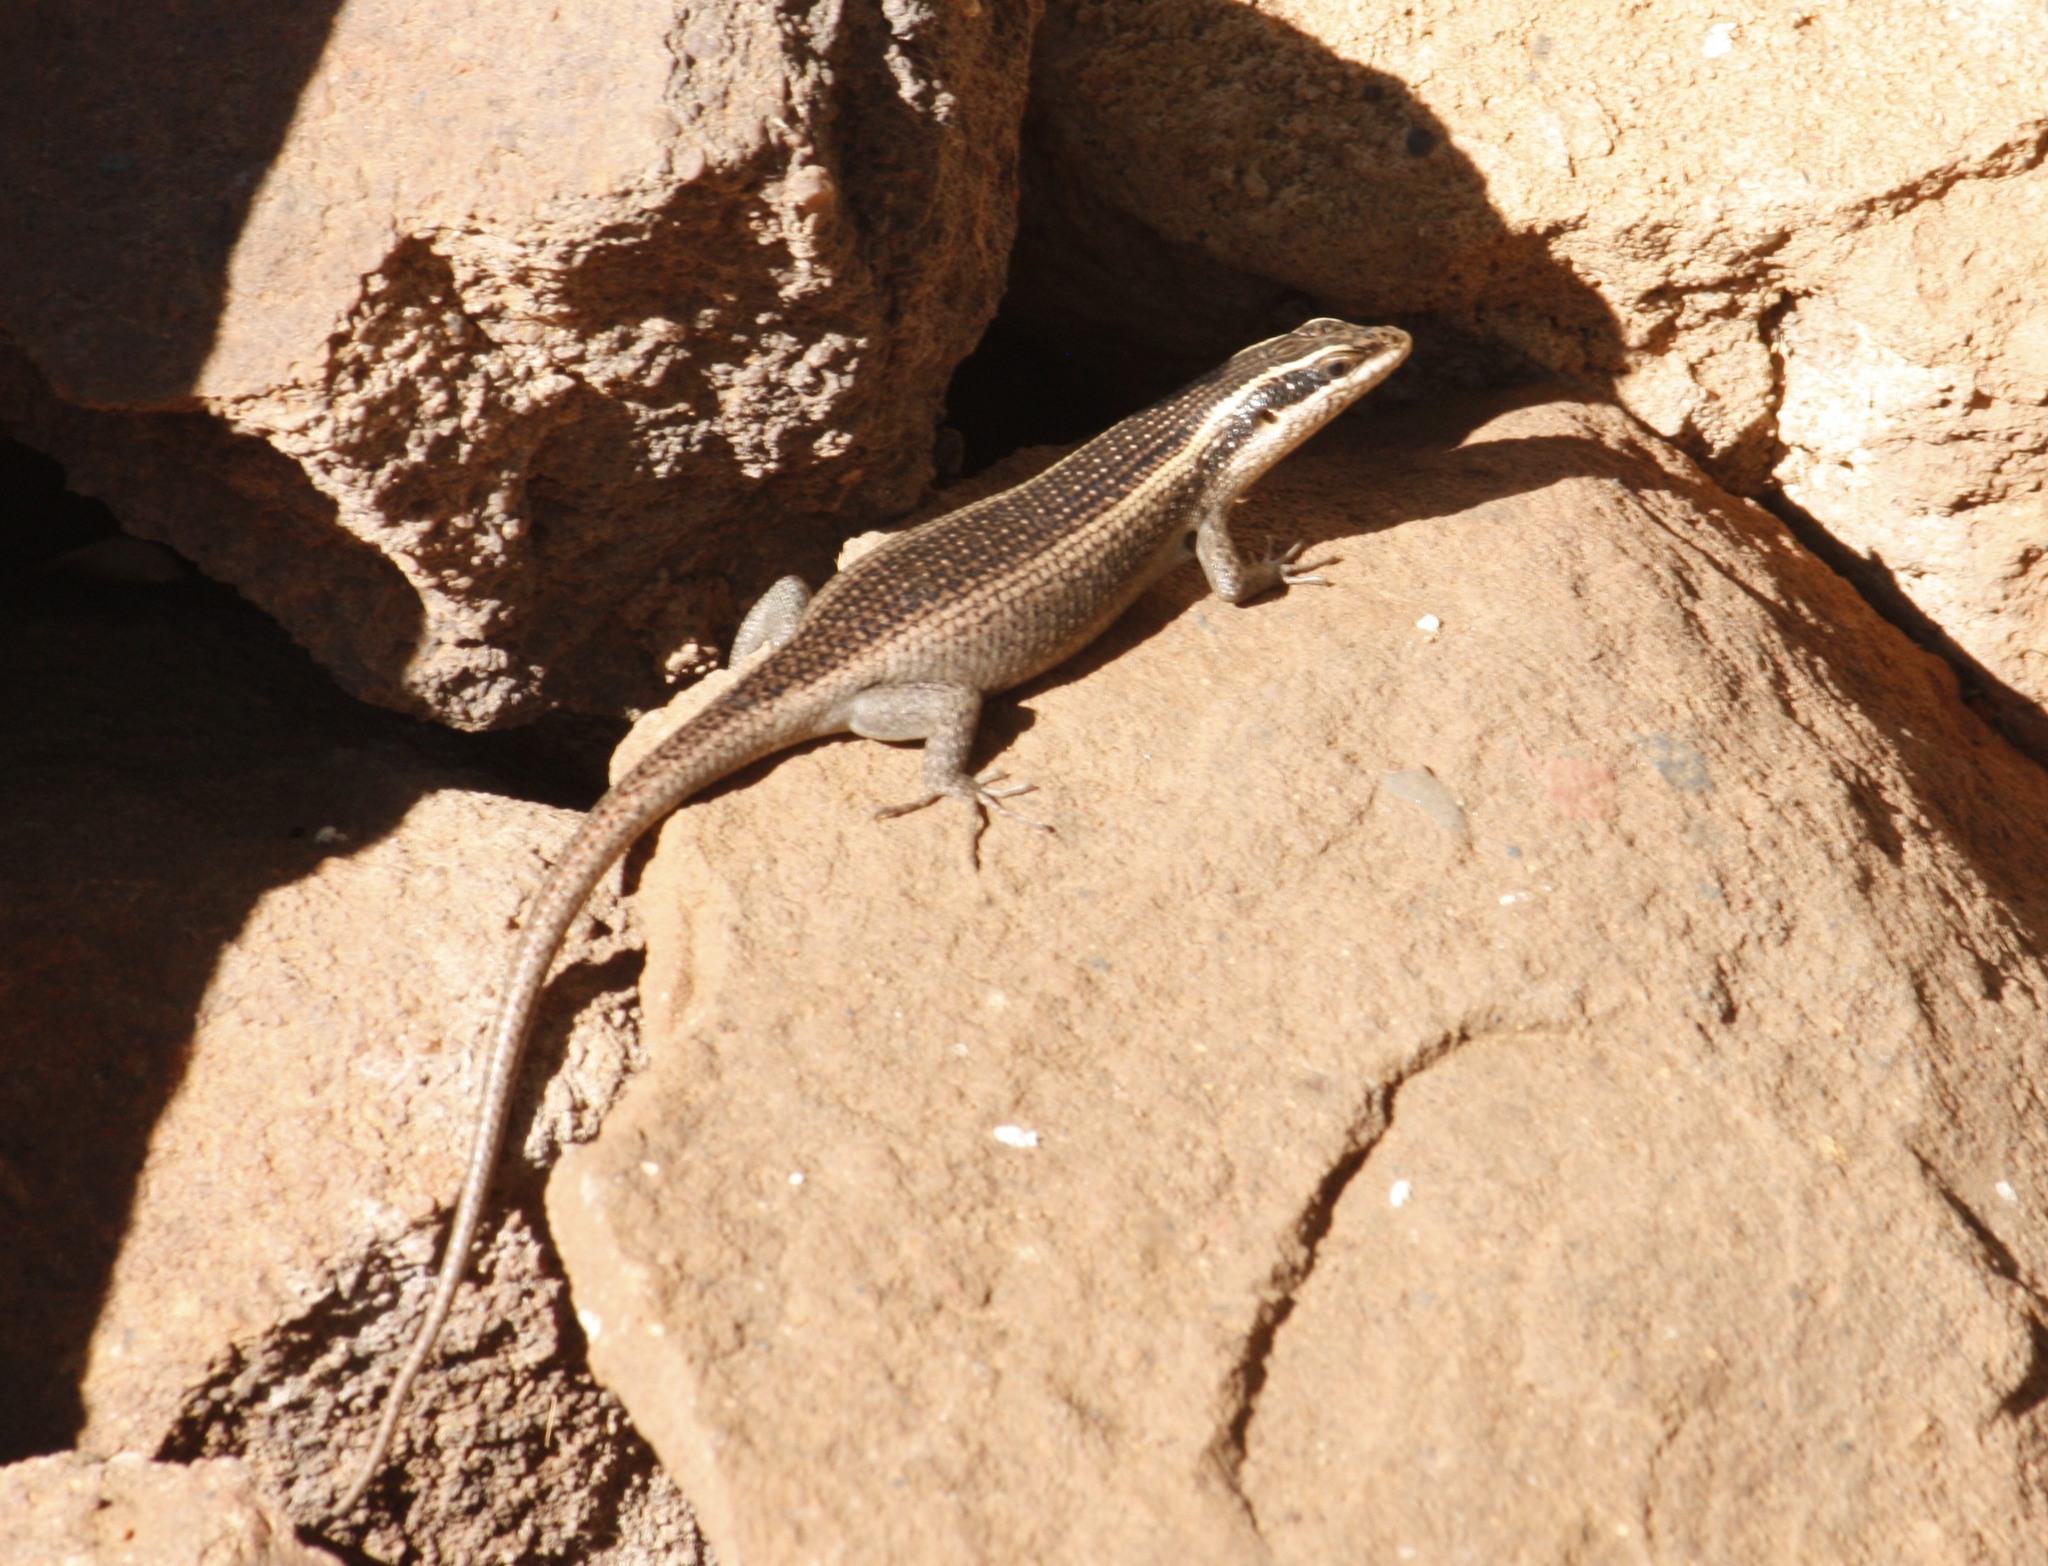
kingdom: Animalia
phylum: Chordata
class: Squamata
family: Scincidae
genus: Trachylepis
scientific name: Trachylepis punctatissima
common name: Montane speckled skink
